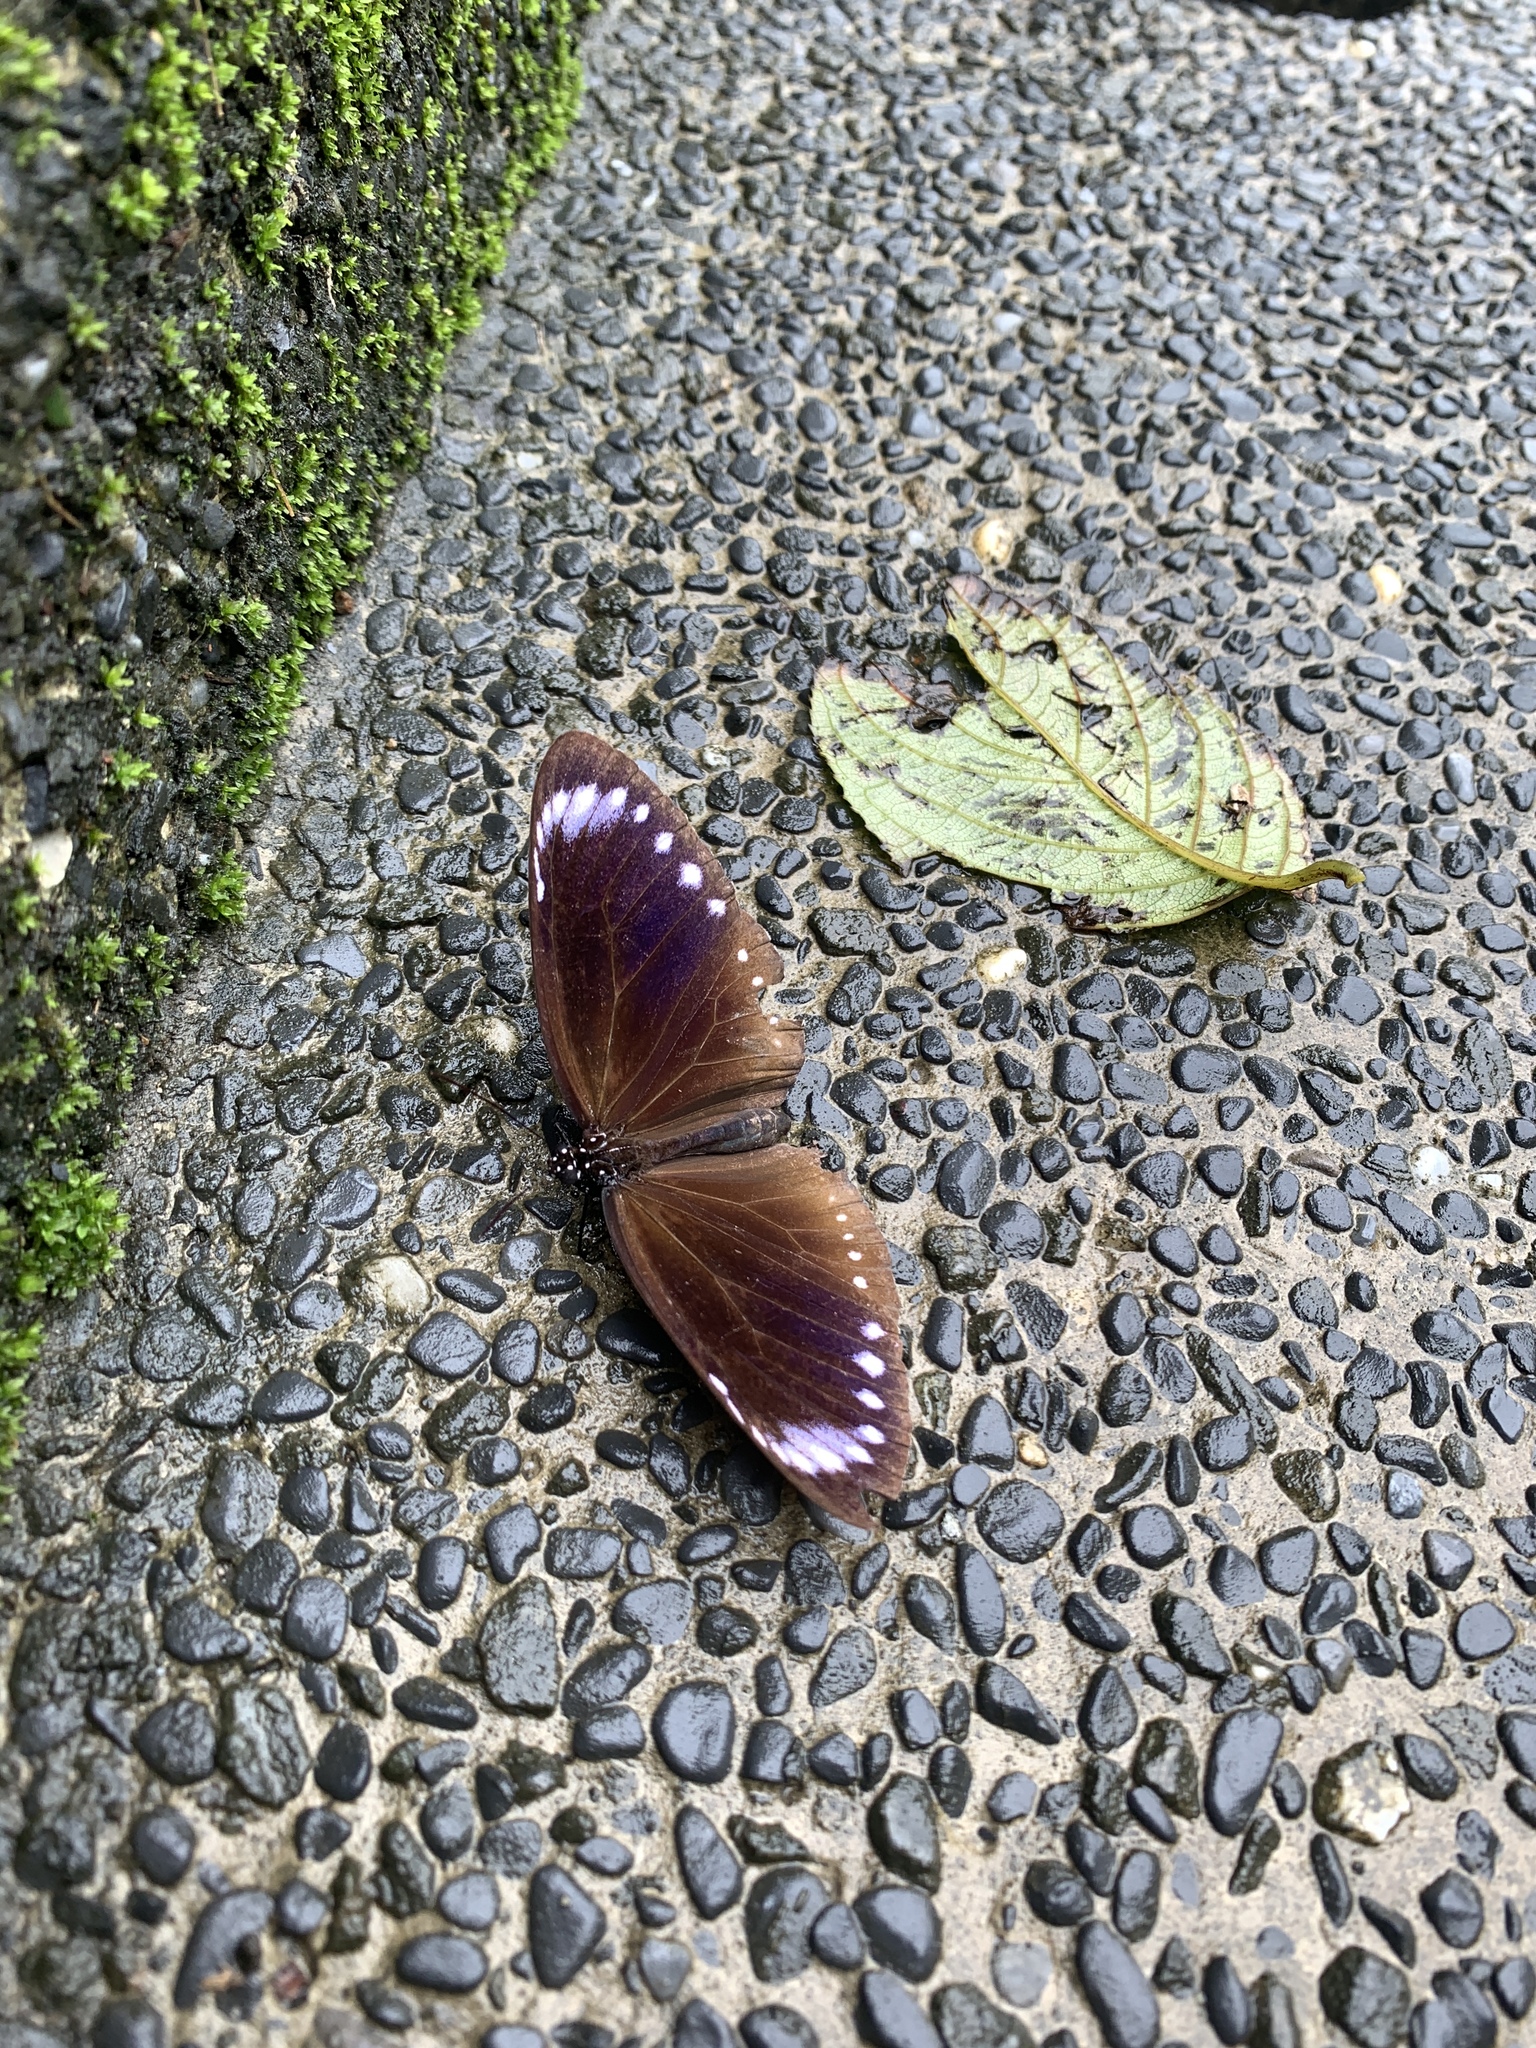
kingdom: Animalia
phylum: Arthropoda
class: Insecta
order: Lepidoptera
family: Nymphalidae
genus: Euploea
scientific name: Euploea tulliolus
